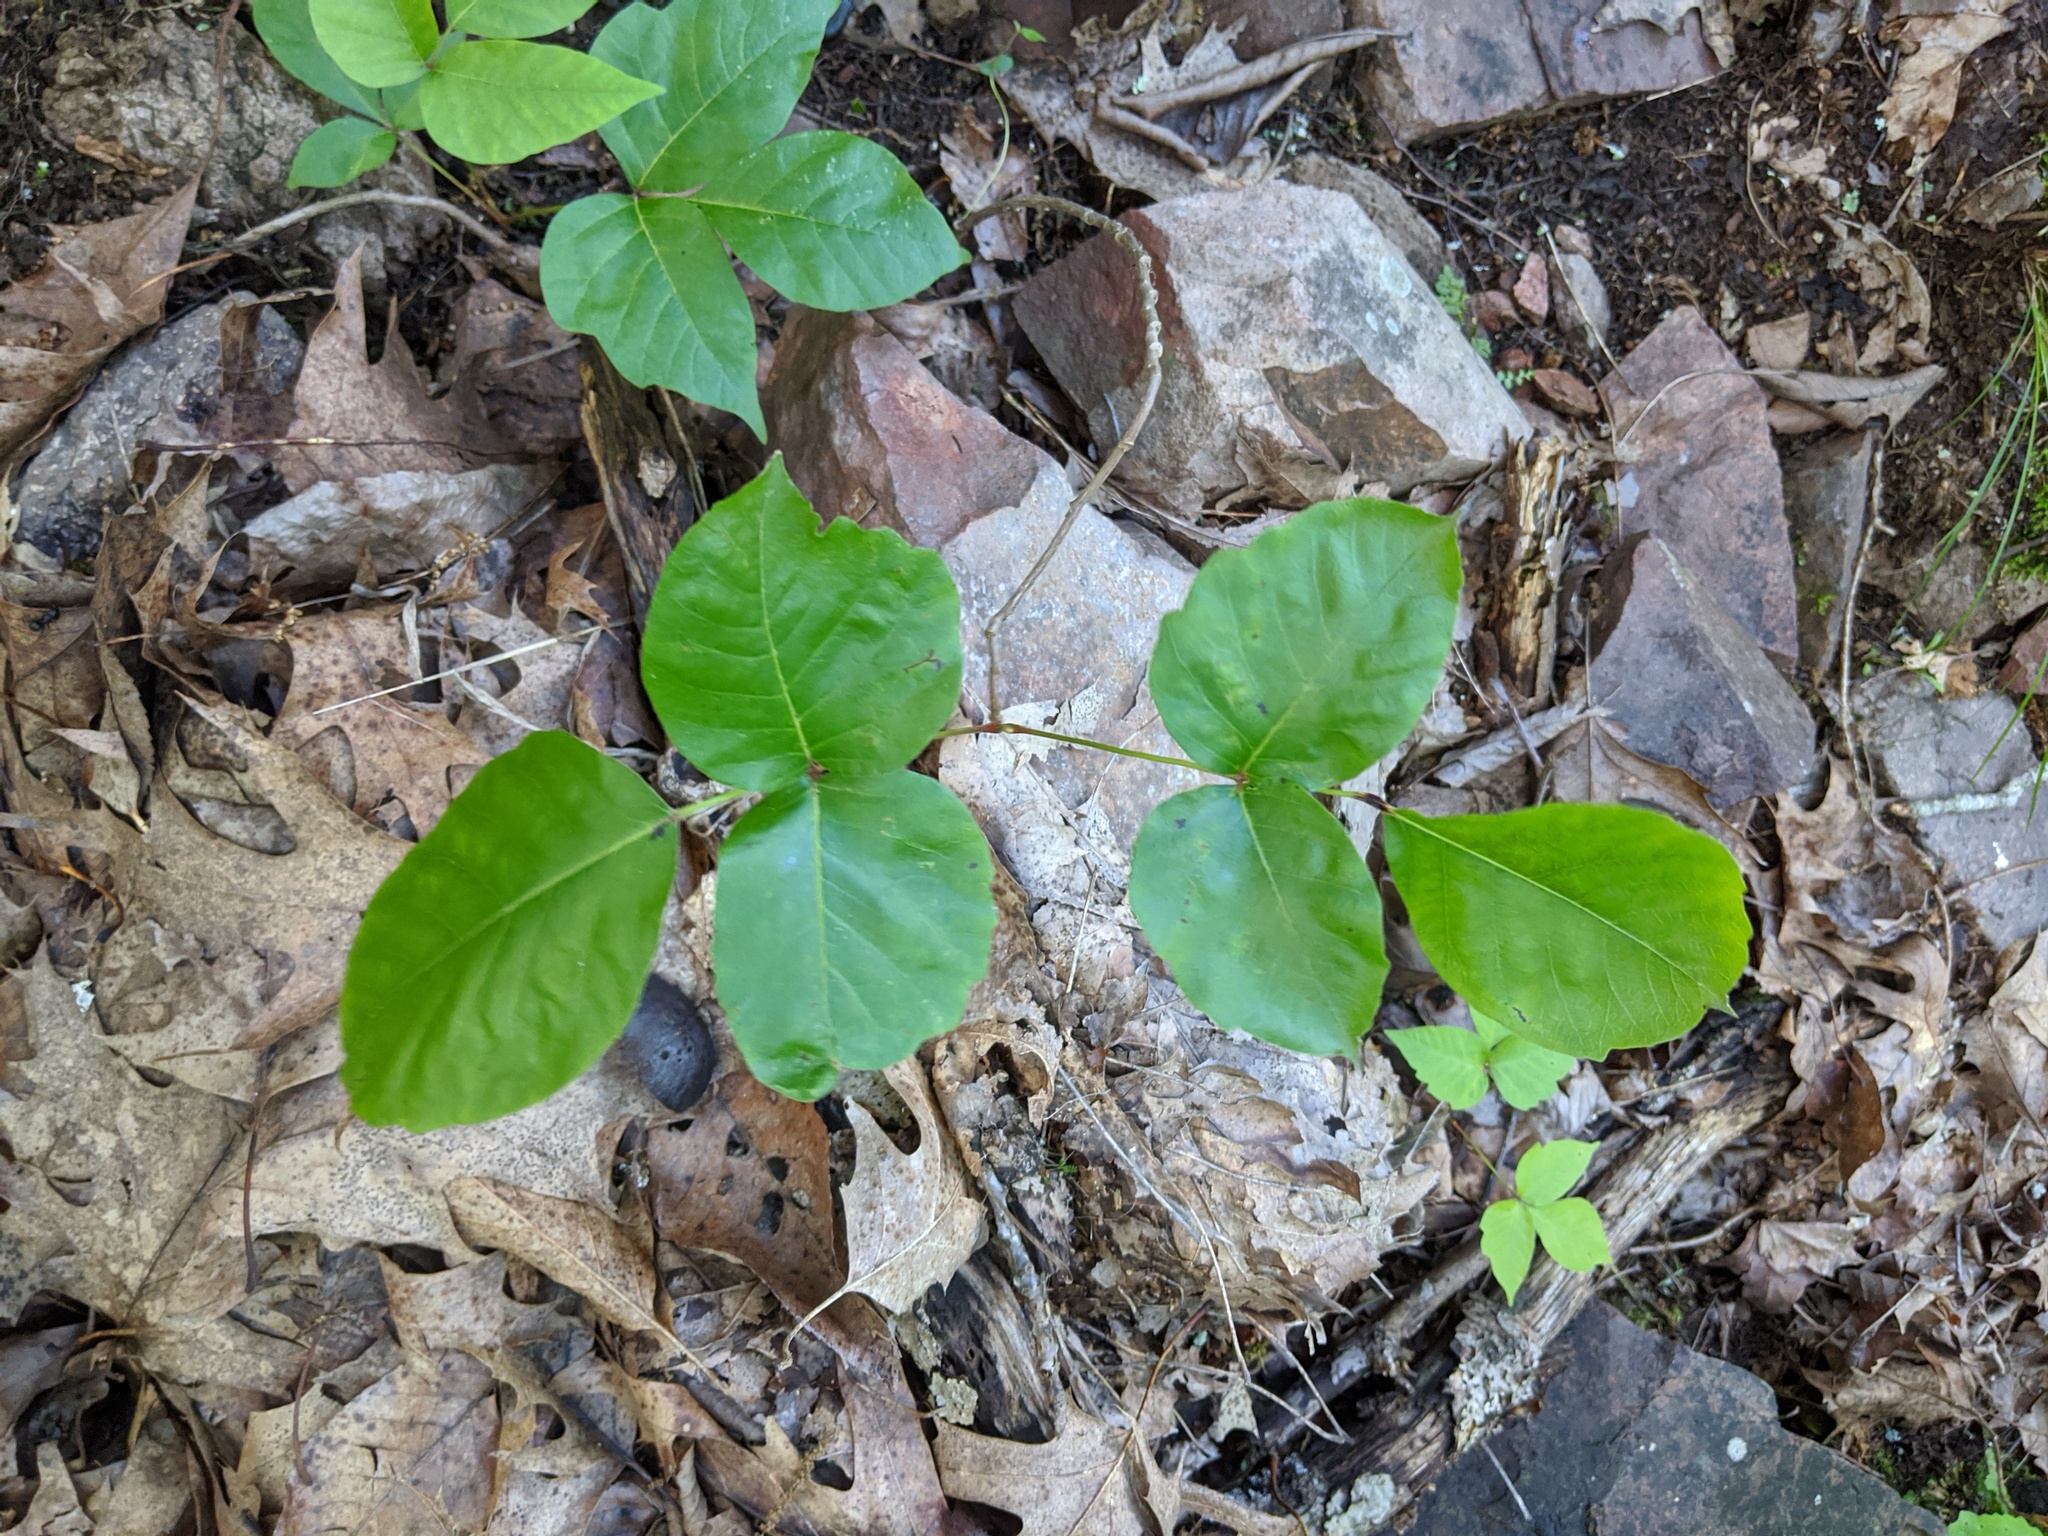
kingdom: Plantae
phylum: Tracheophyta
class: Magnoliopsida
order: Sapindales
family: Anacardiaceae
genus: Toxicodendron
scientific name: Toxicodendron radicans
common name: Poison ivy
